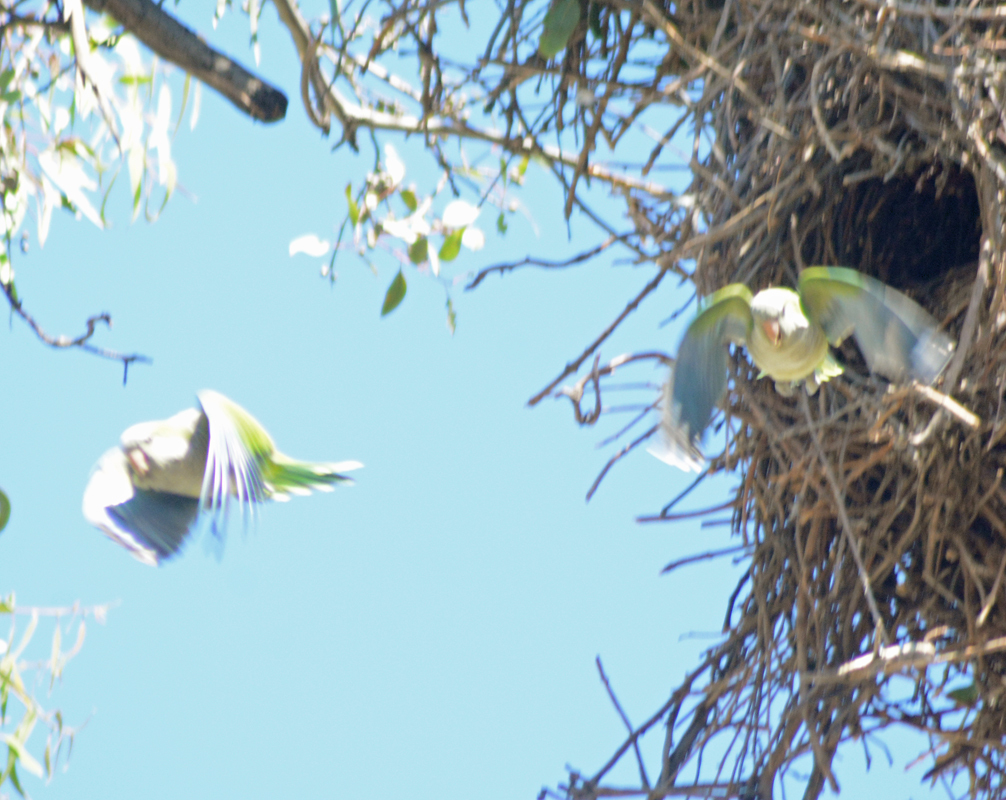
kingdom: Animalia
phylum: Chordata
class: Aves
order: Psittaciformes
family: Psittacidae
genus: Myiopsitta
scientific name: Myiopsitta monachus
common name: Monk parakeet
